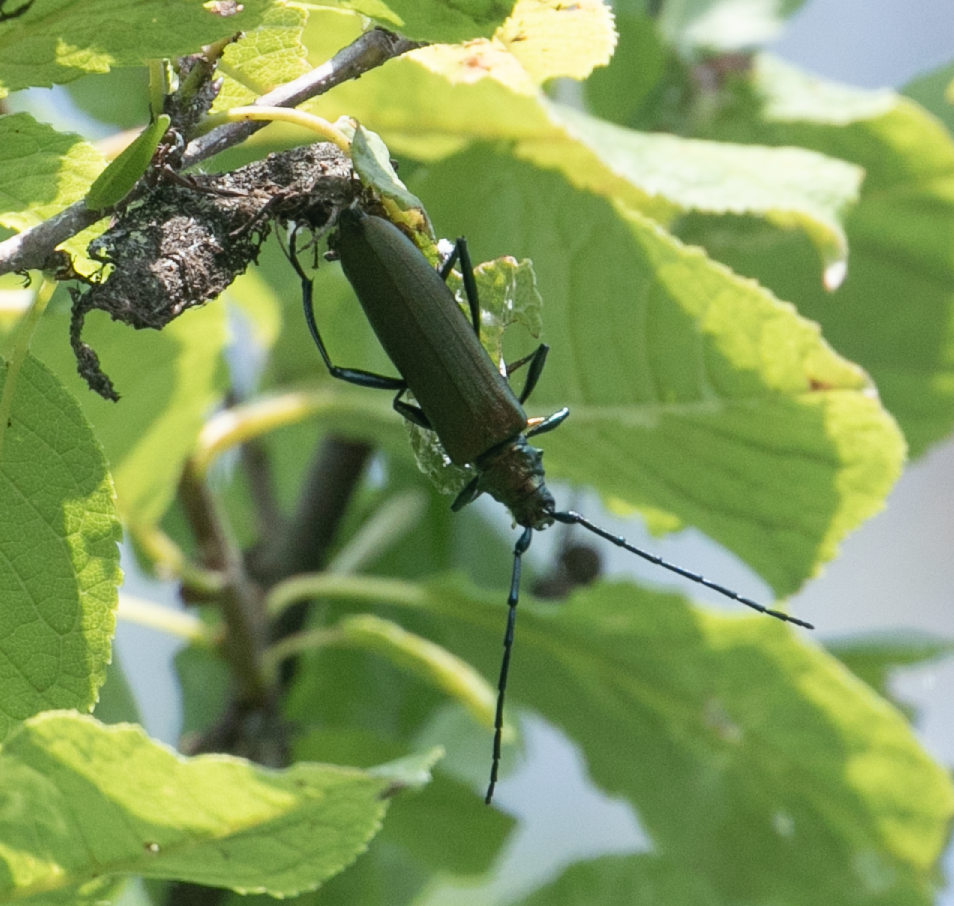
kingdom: Animalia
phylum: Arthropoda
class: Insecta
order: Coleoptera
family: Cerambycidae
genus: Aromia
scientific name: Aromia moschata
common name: Musk beetle
